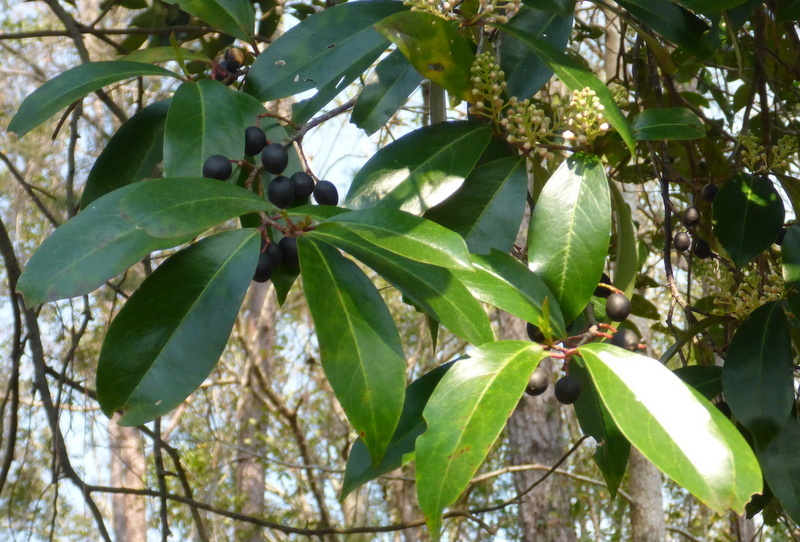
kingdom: Plantae
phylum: Tracheophyta
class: Magnoliopsida
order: Rosales
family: Rosaceae
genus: Prunus
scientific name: Prunus caroliniana
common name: Carolina laurel cherry
